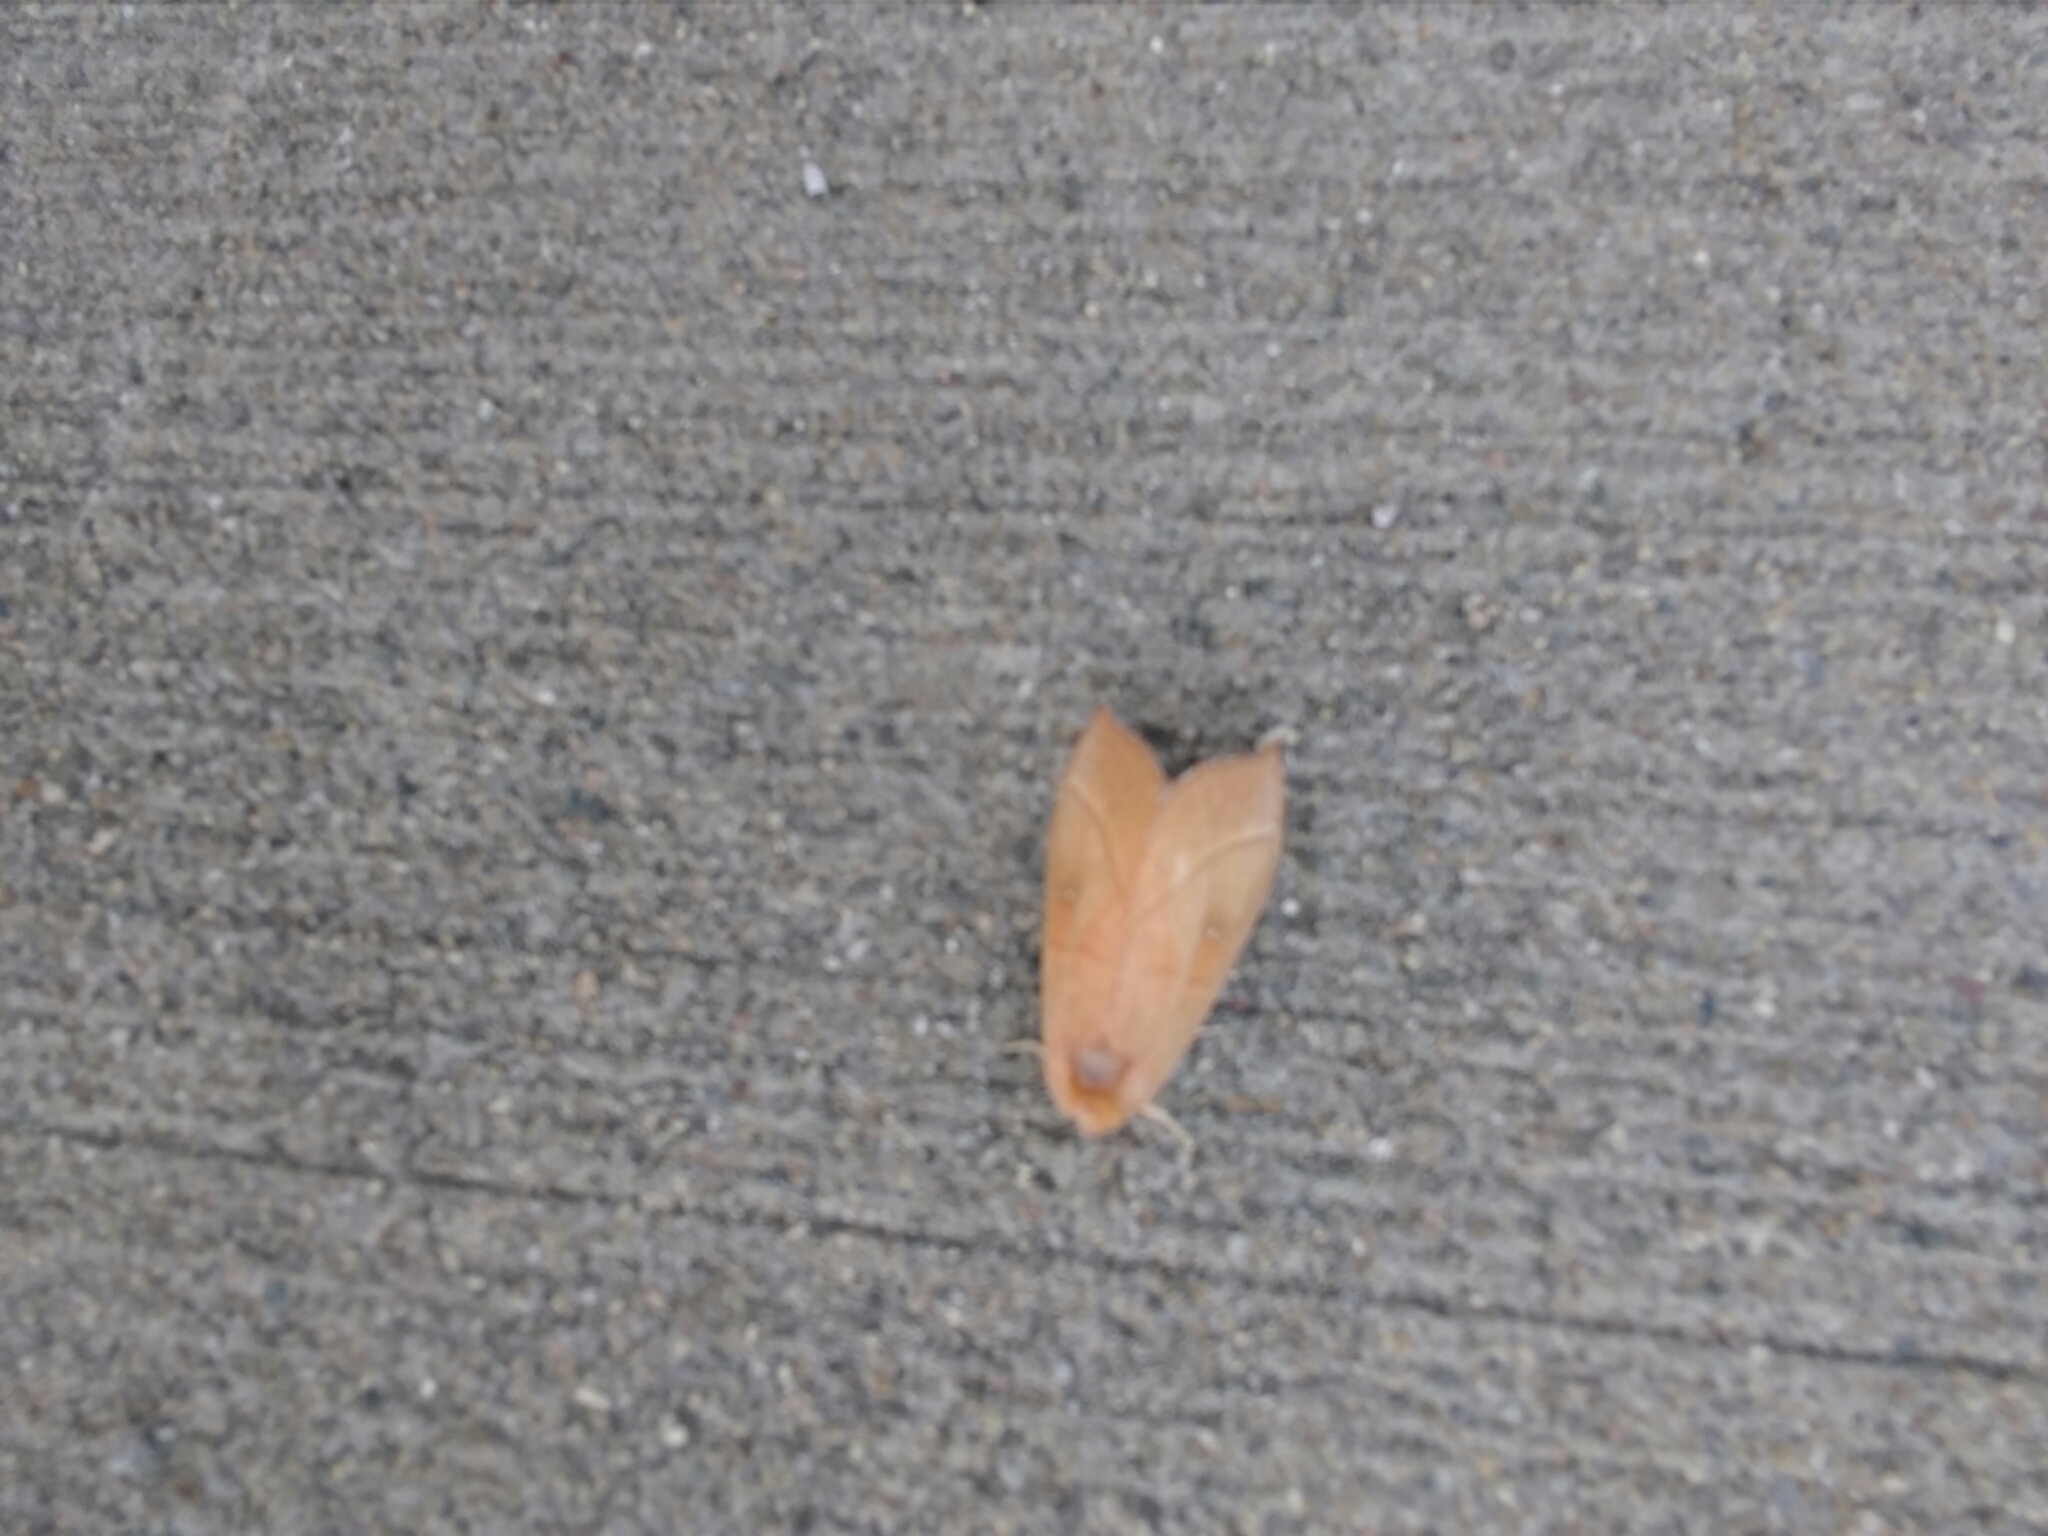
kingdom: Animalia
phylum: Arthropoda
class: Insecta
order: Lepidoptera
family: Notodontidae
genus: Nadata
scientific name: Nadata gibbosa
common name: White-dotted prominent
